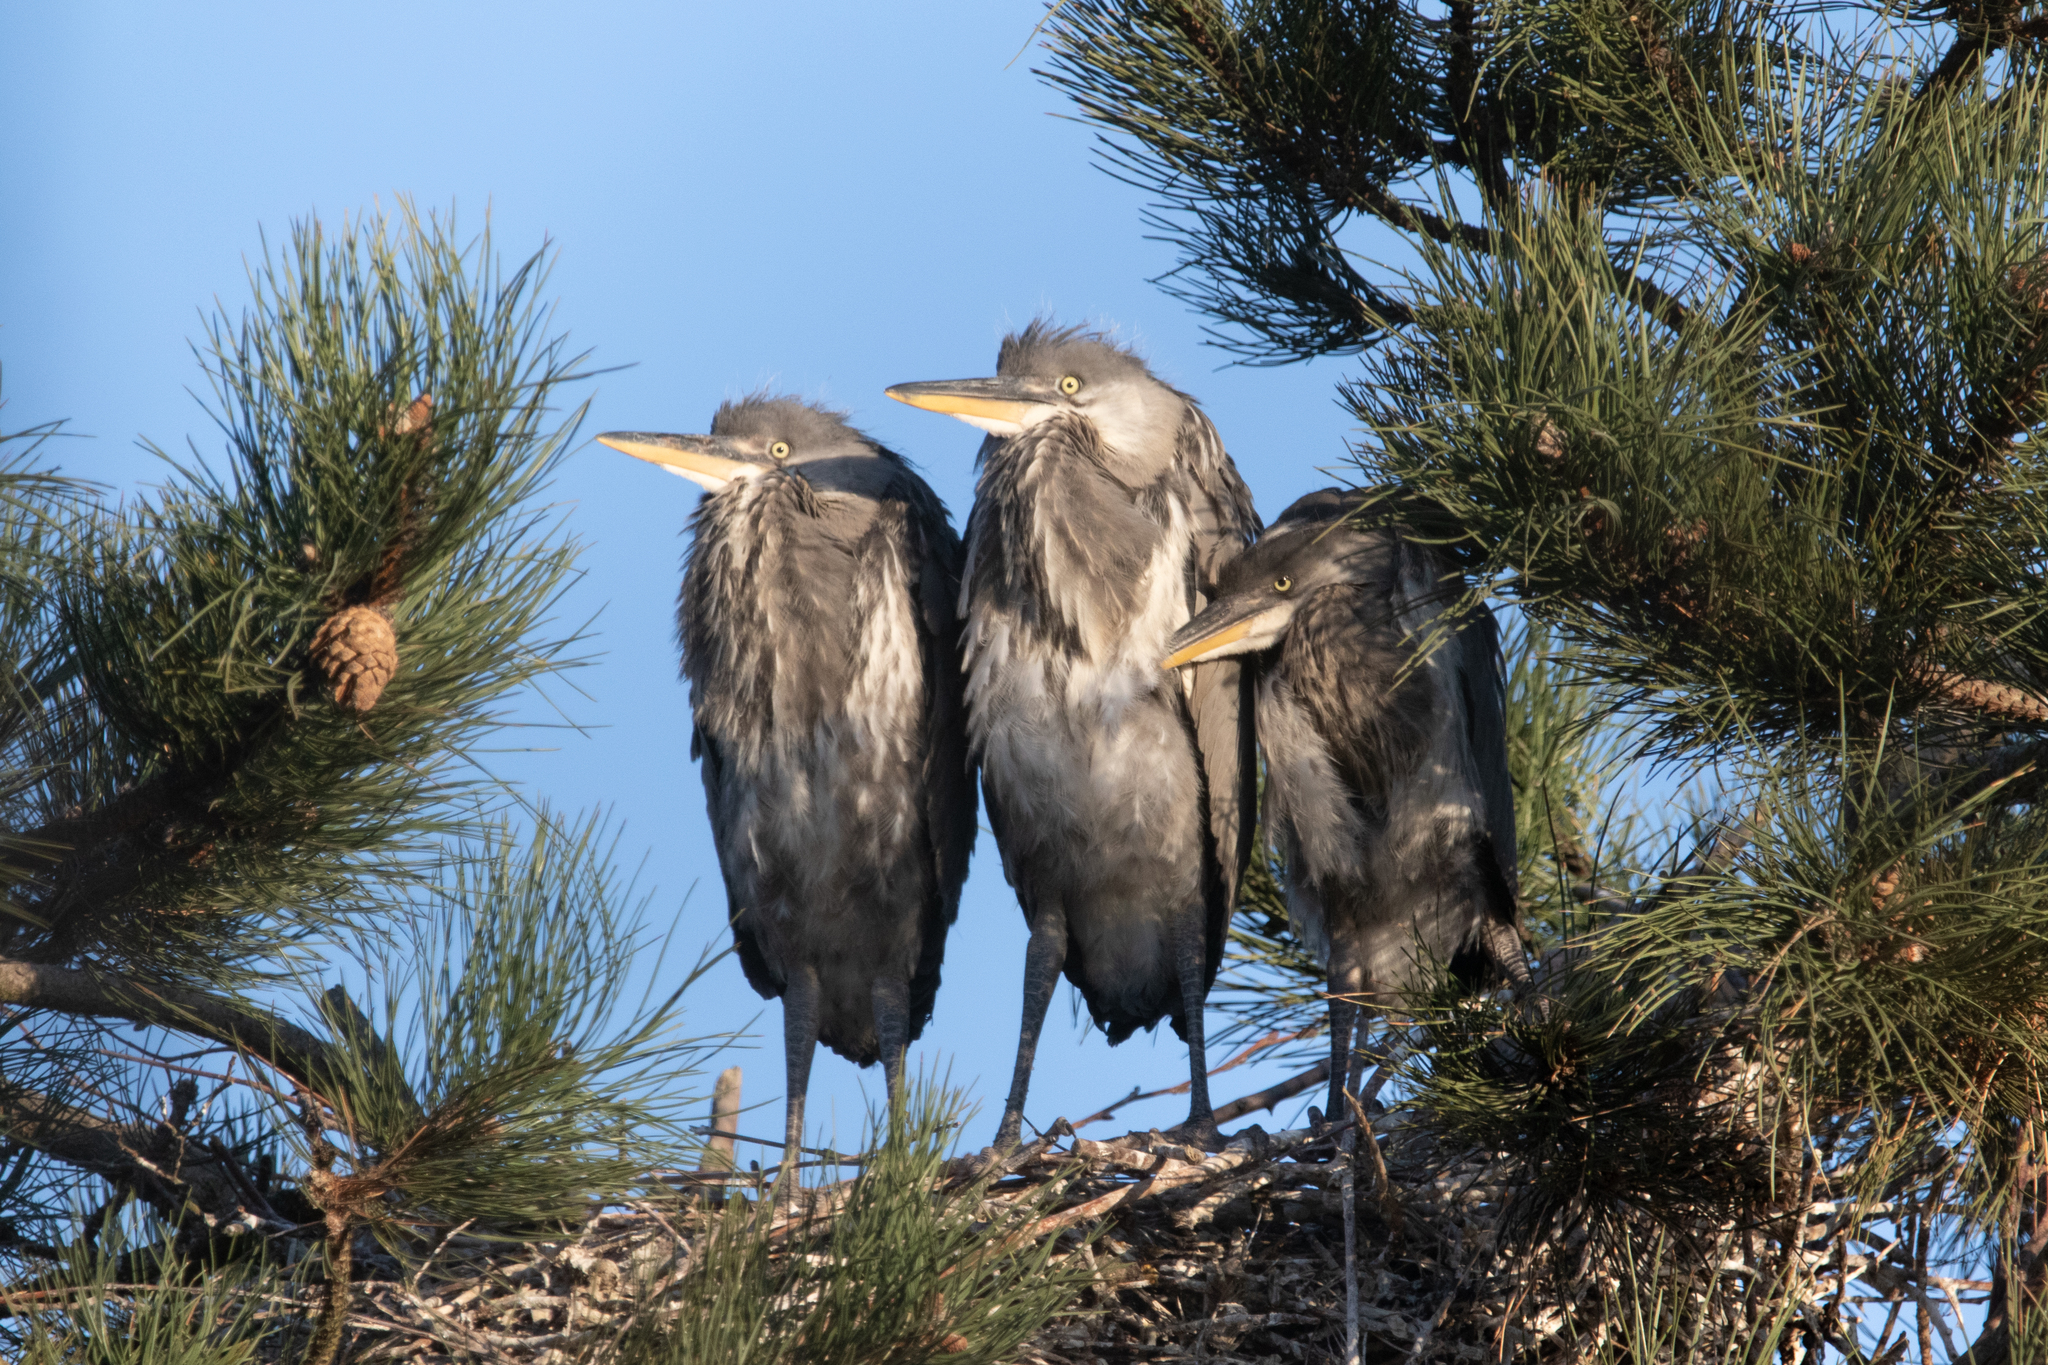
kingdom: Animalia
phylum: Chordata
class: Aves
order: Pelecaniformes
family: Ardeidae
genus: Ardea
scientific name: Ardea cinerea
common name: Grey heron
